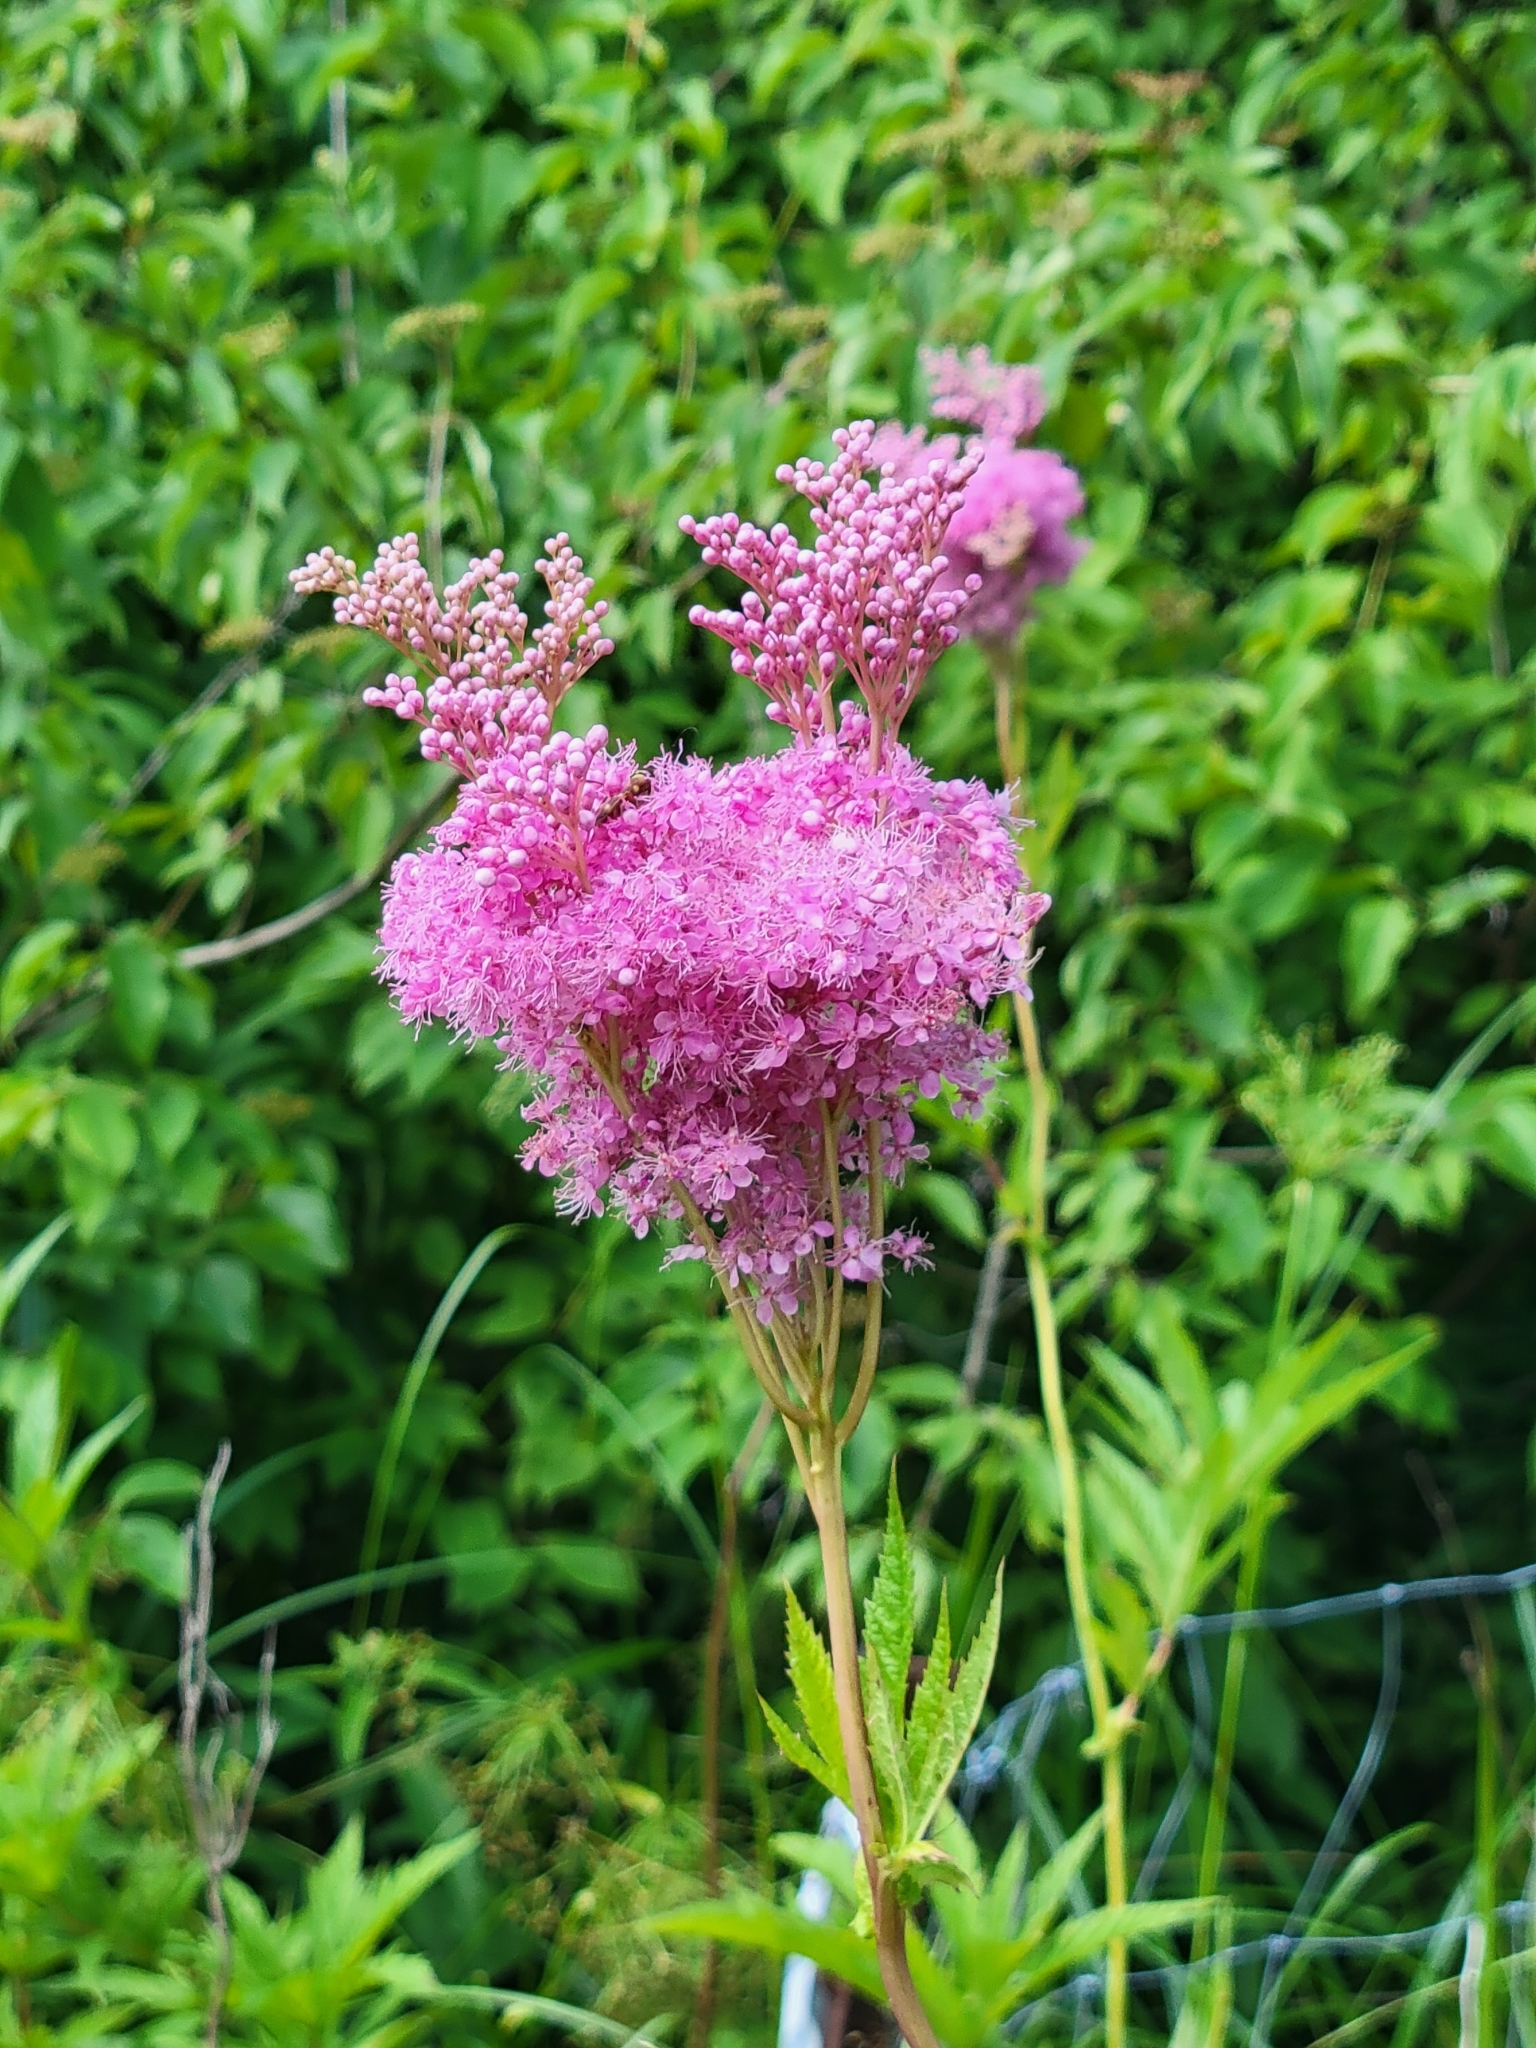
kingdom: Plantae
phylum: Tracheophyta
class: Magnoliopsida
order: Rosales
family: Rosaceae
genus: Filipendula
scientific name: Filipendula rubra
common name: Queen-of-the-prairie
